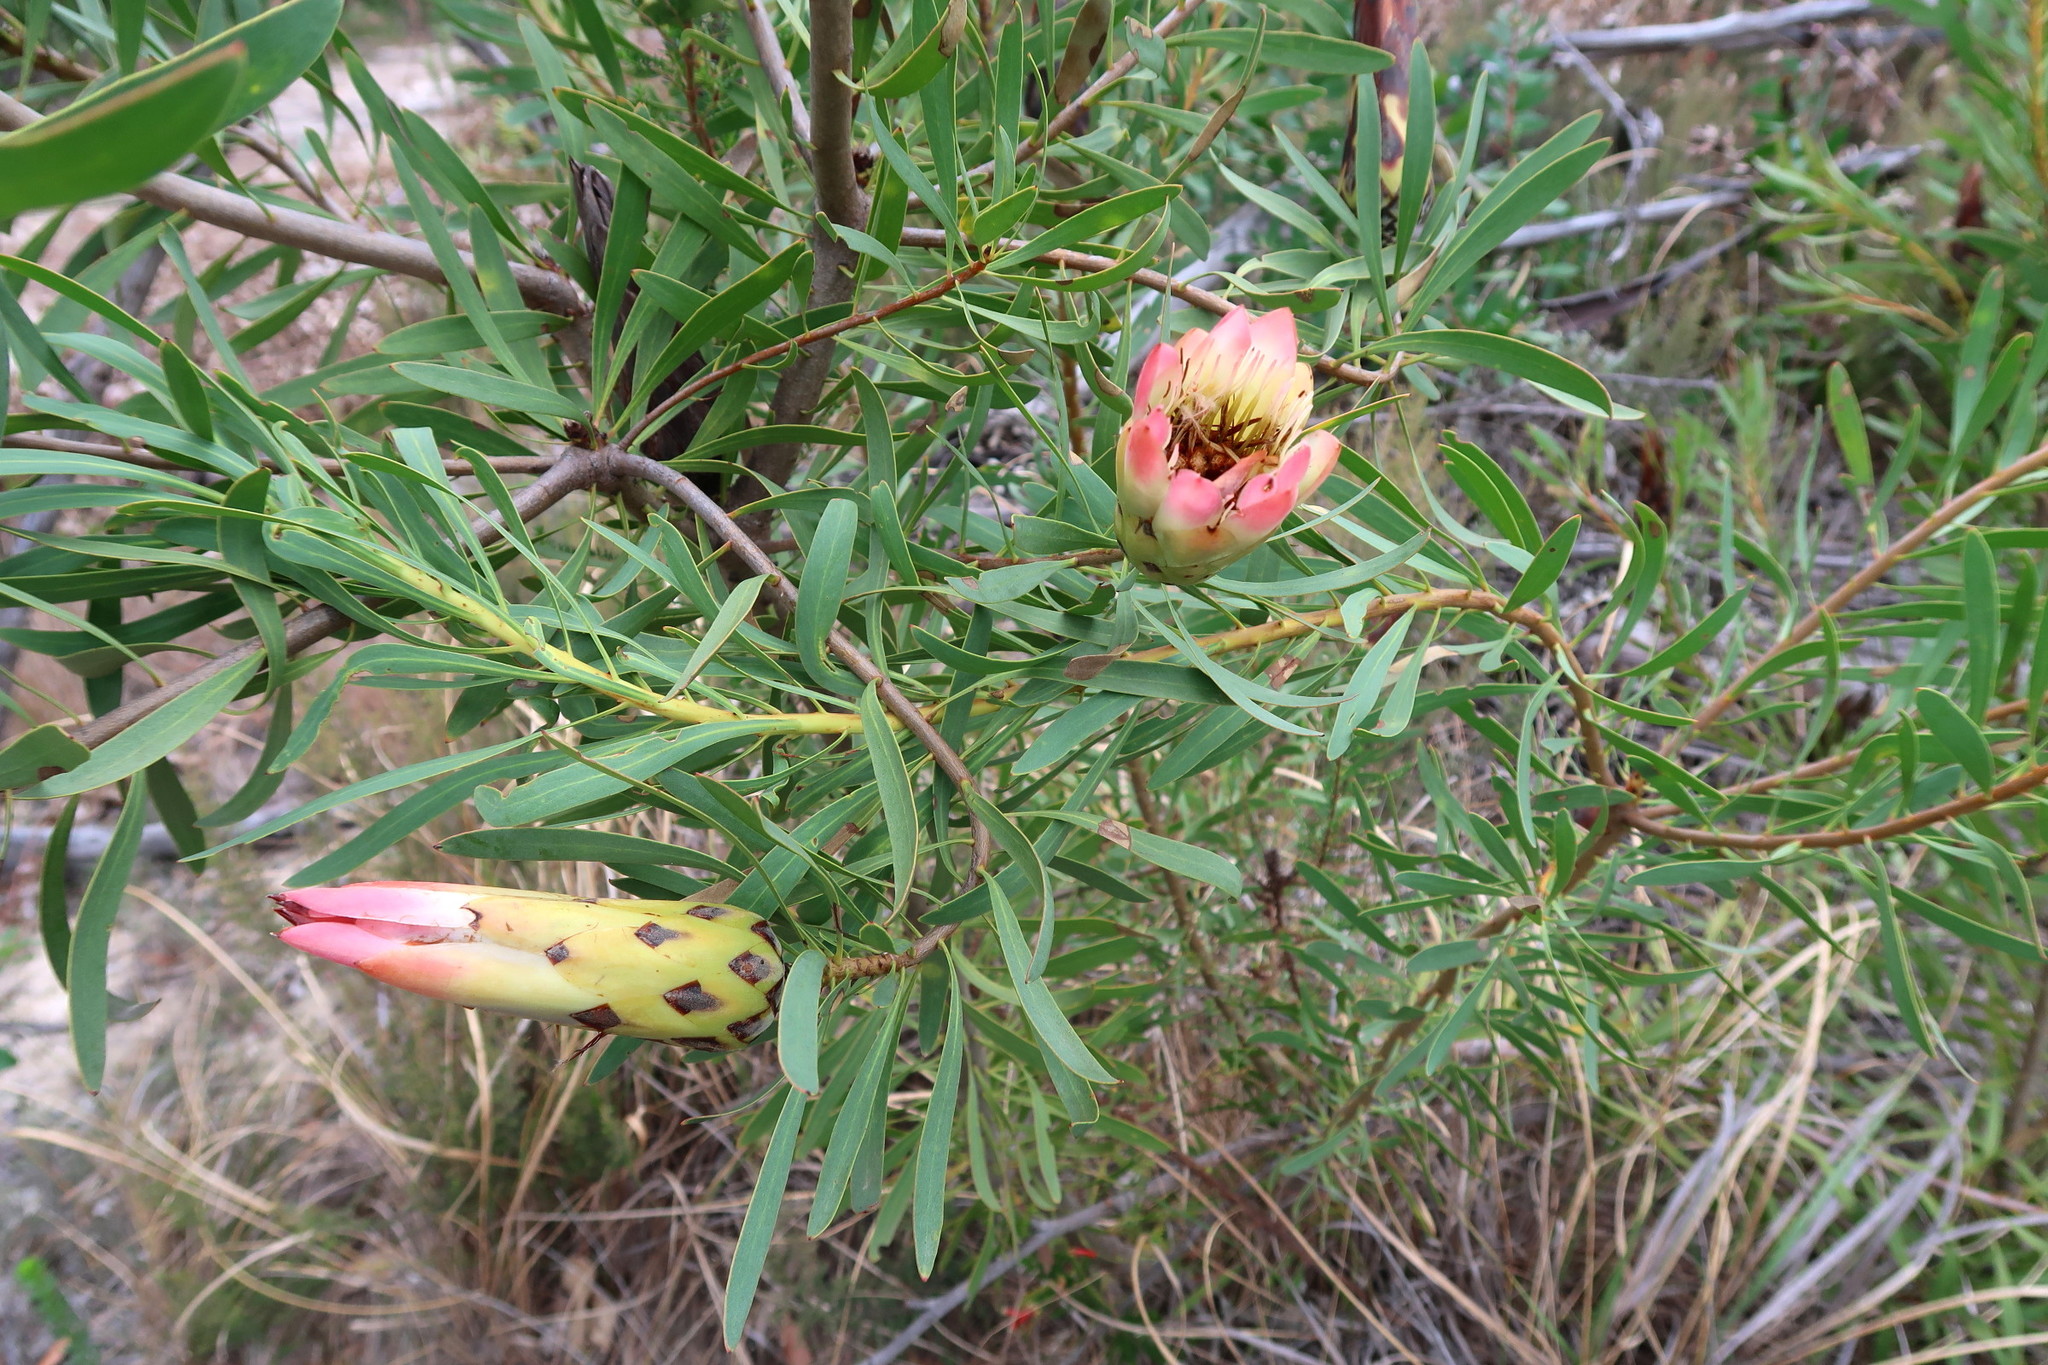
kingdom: Plantae
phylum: Tracheophyta
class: Magnoliopsida
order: Proteales
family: Proteaceae
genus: Protea
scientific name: Protea repens
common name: Sugarbush
